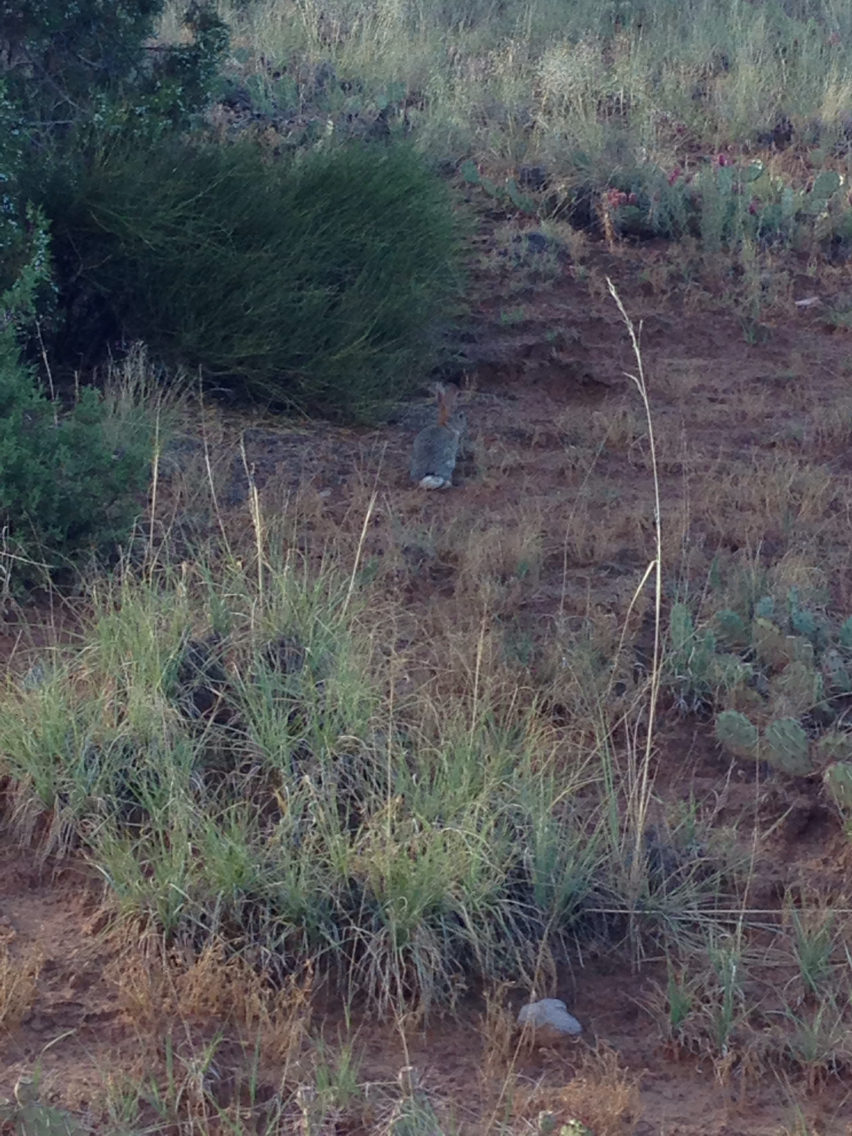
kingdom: Animalia
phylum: Chordata
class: Mammalia
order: Lagomorpha
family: Leporidae
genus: Sylvilagus
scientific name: Sylvilagus audubonii
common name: Desert cottontail
